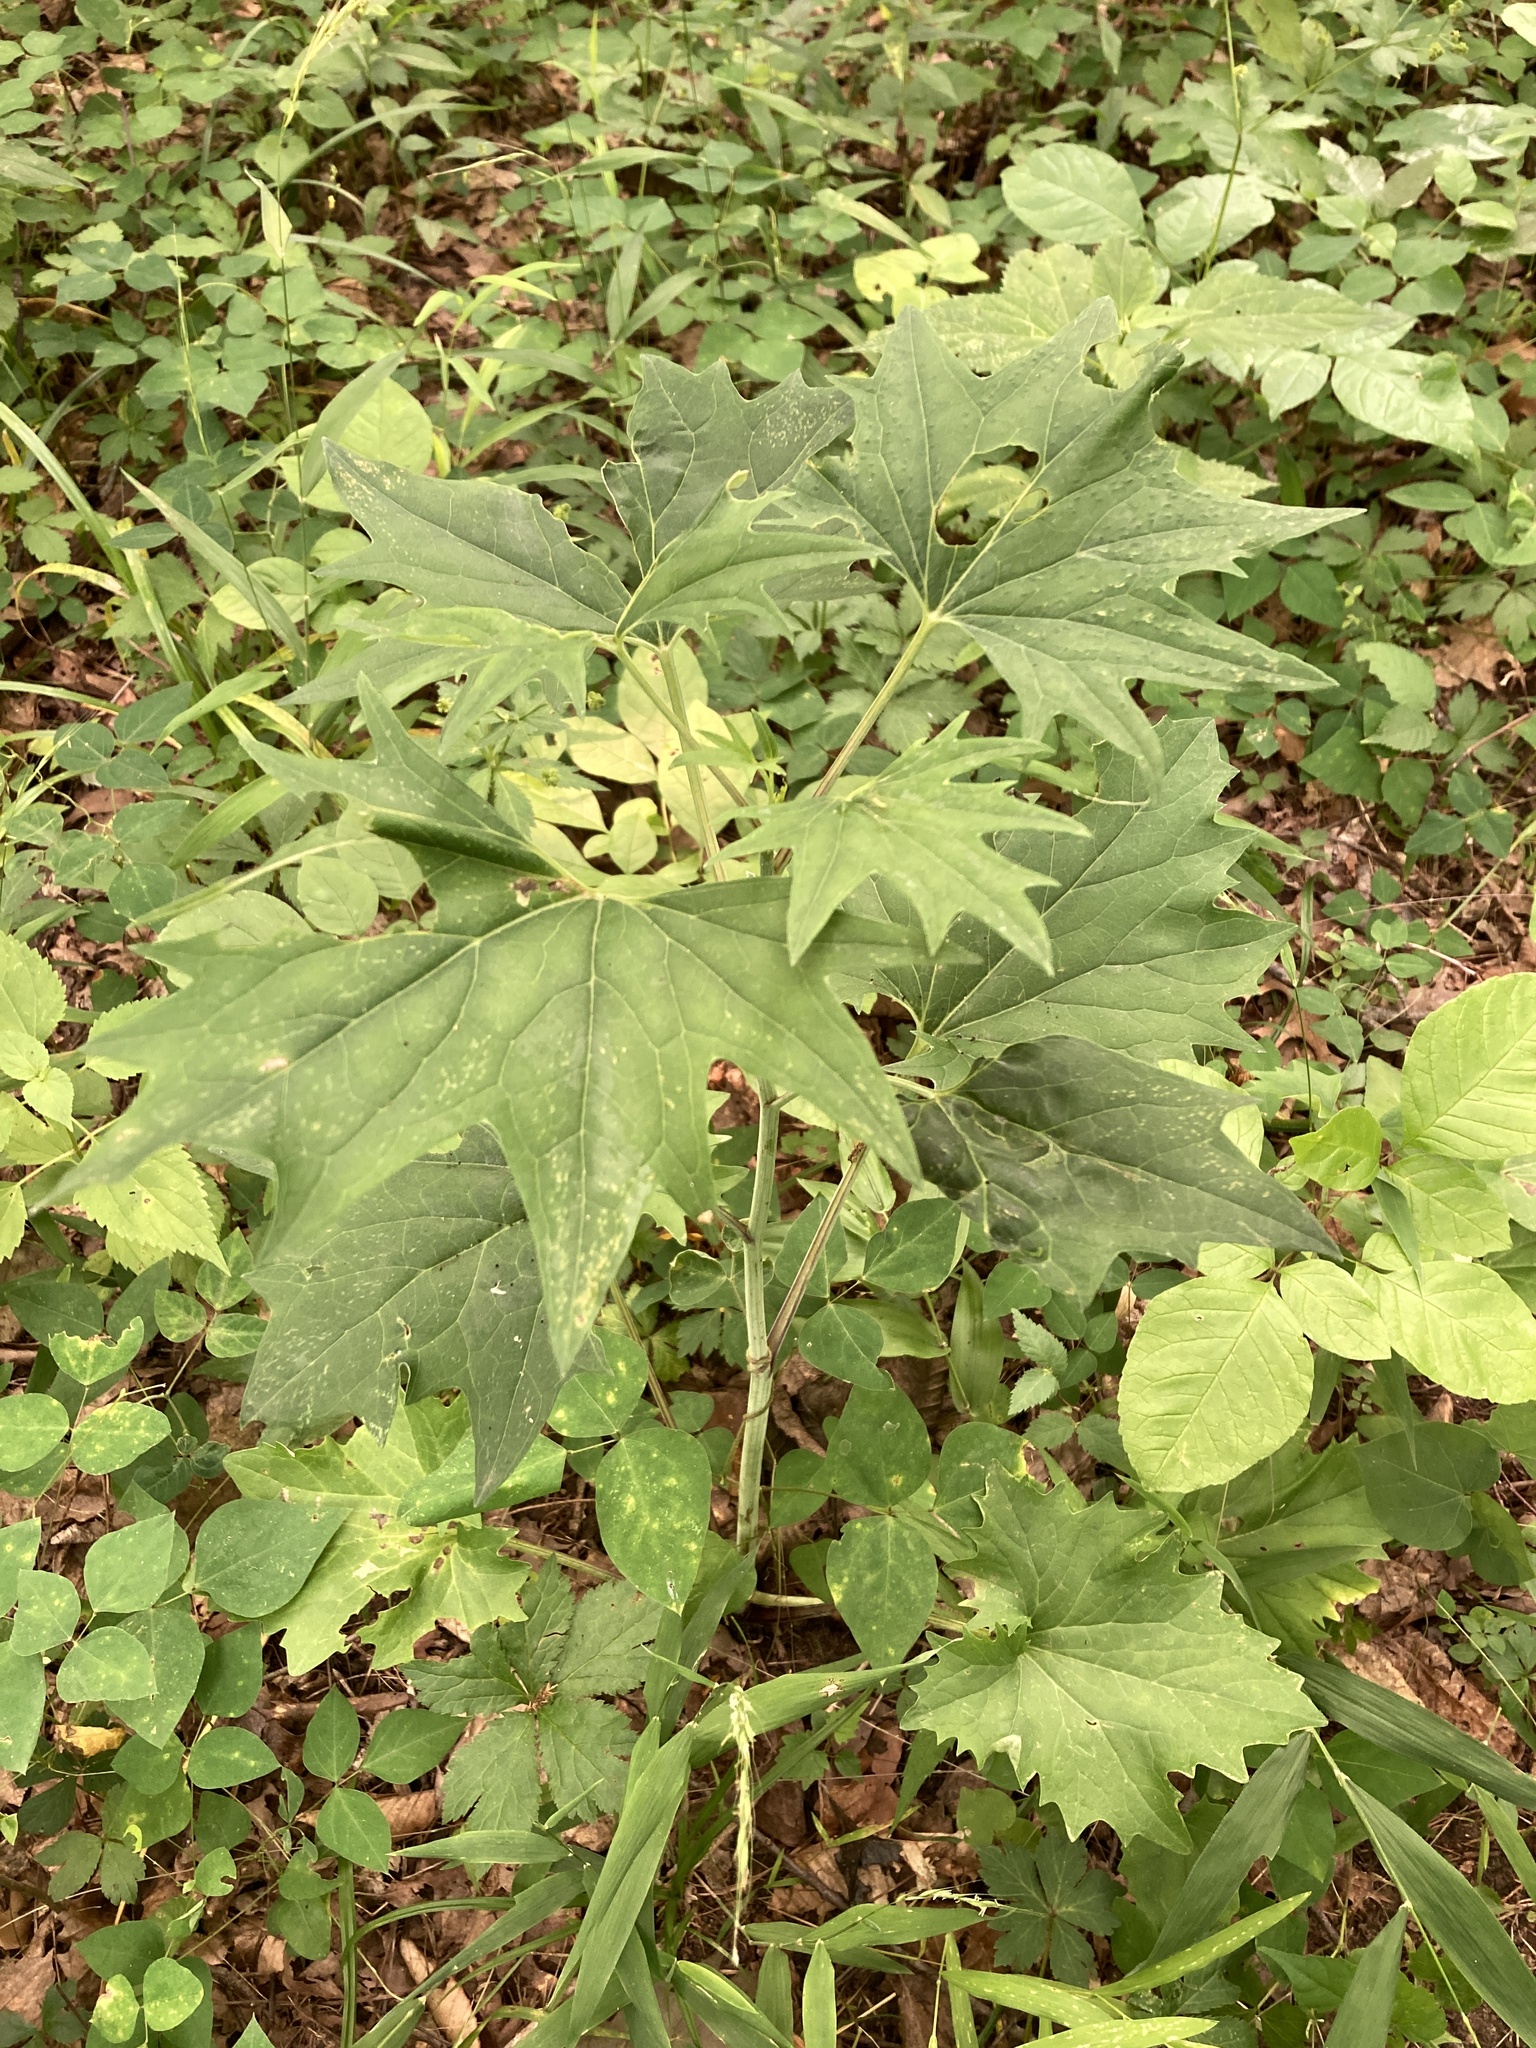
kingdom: Plantae
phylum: Tracheophyta
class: Magnoliopsida
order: Asterales
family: Asteraceae
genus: Arnoglossum
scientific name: Arnoglossum atriplicifolium
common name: Pale indian-plantain
